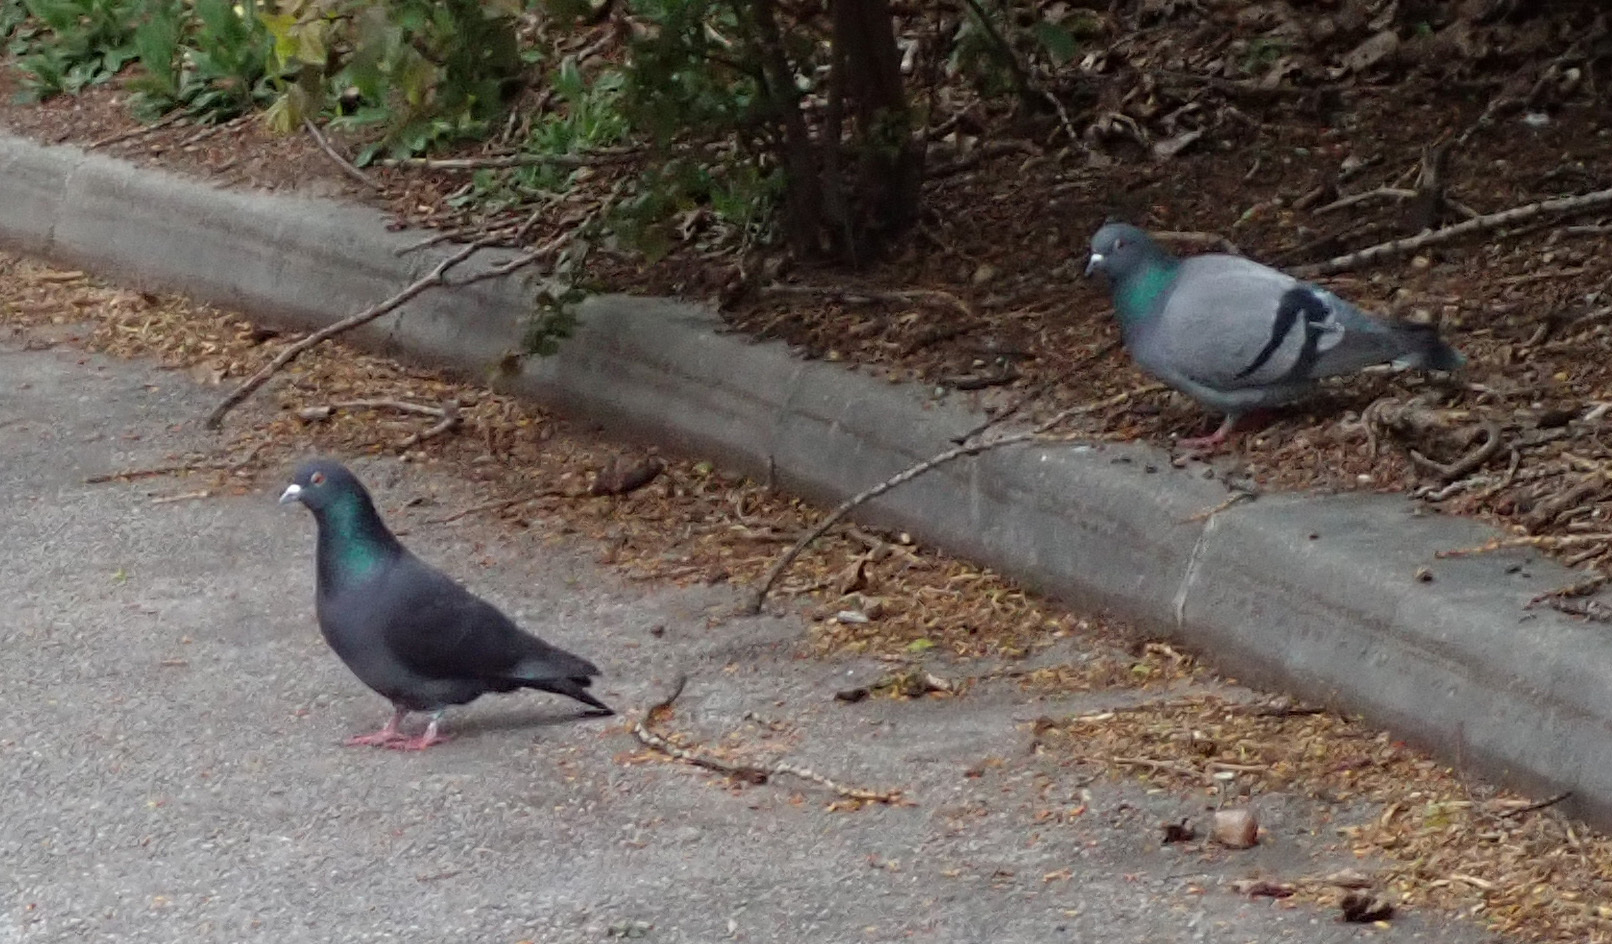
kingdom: Animalia
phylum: Chordata
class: Aves
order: Columbiformes
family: Columbidae
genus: Columba
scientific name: Columba livia
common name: Rock pigeon
